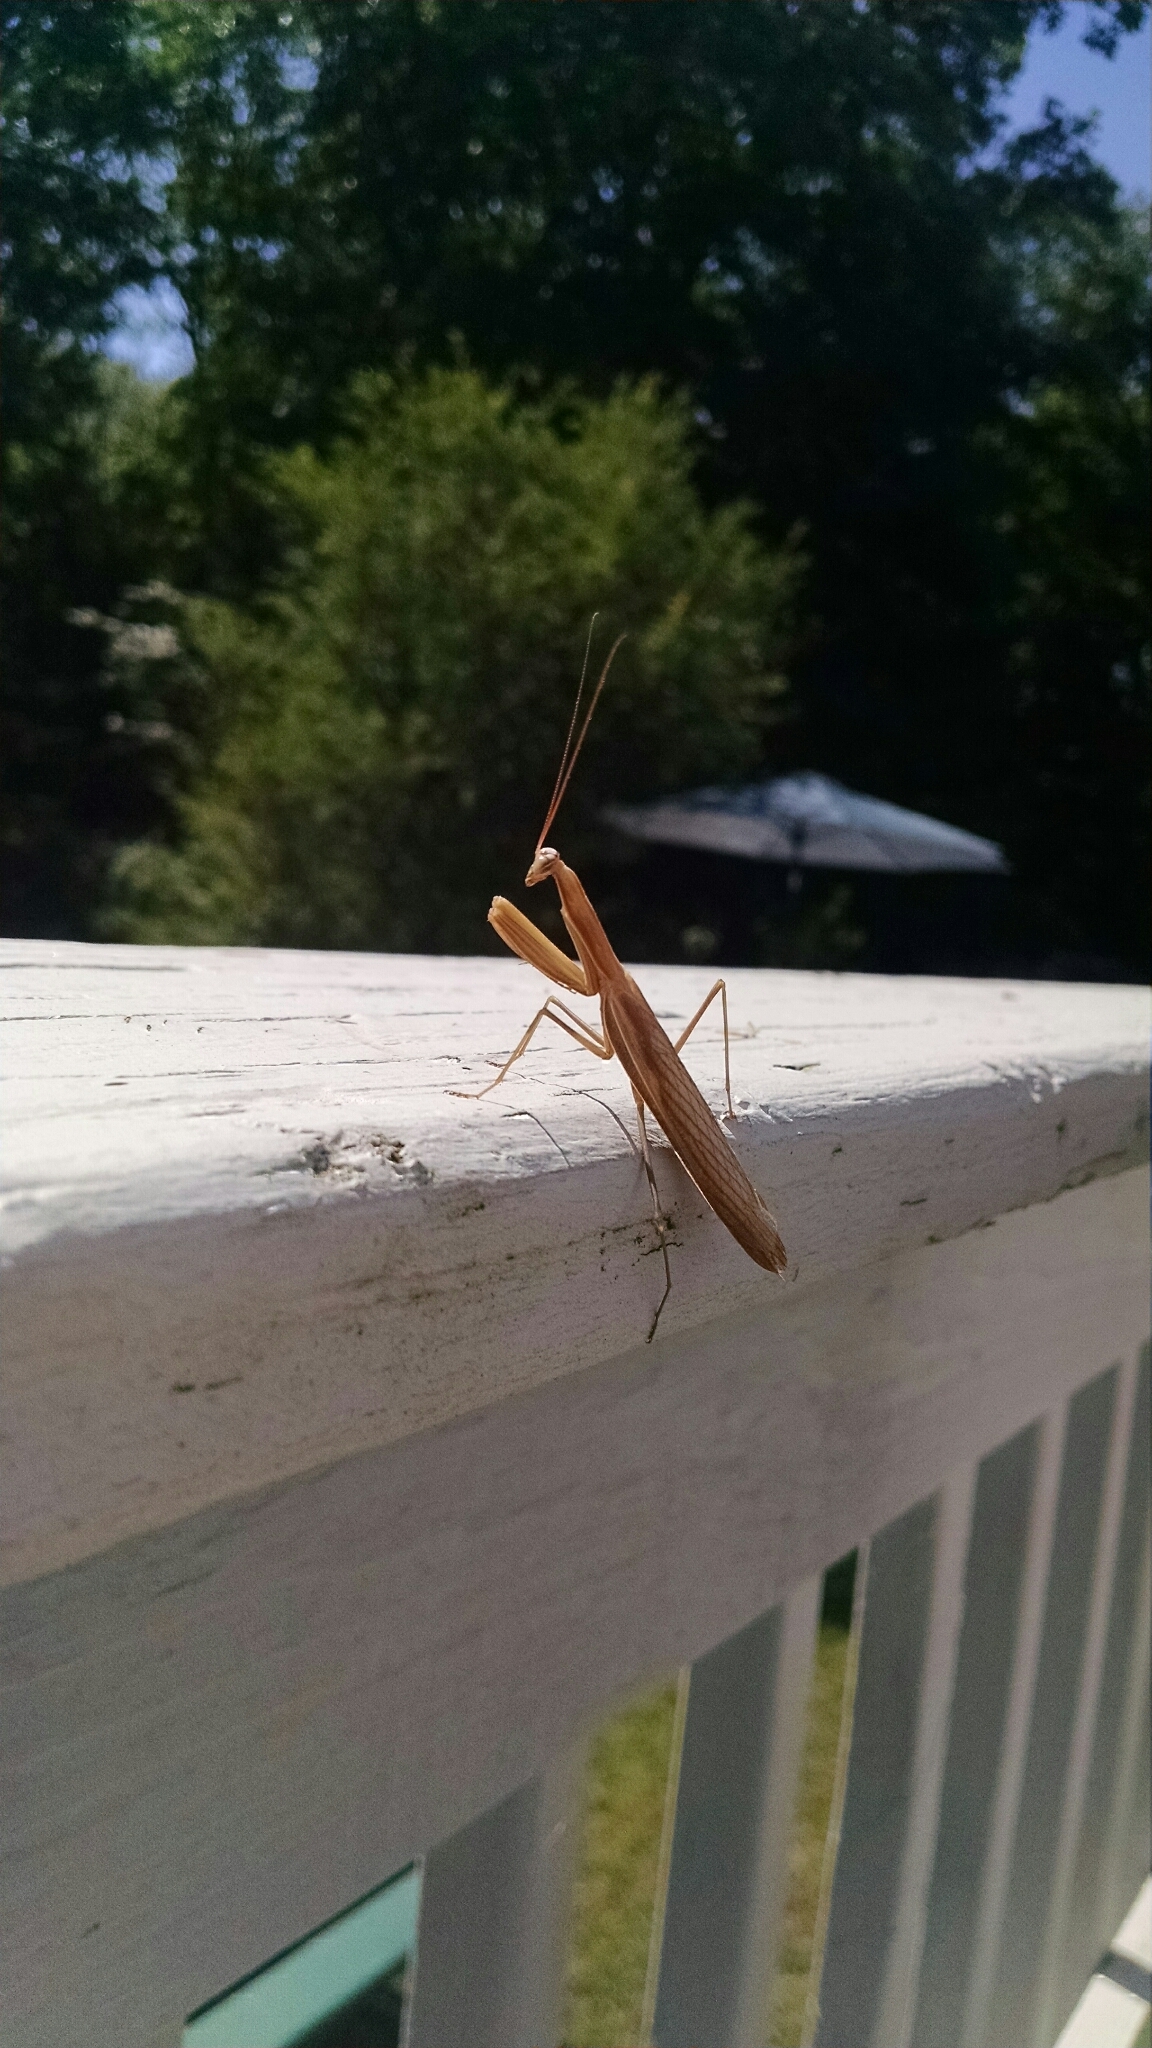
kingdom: Animalia
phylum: Arthropoda
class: Insecta
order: Mantodea
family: Mantidae
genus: Mantis
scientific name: Mantis religiosa
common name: Praying mantis
